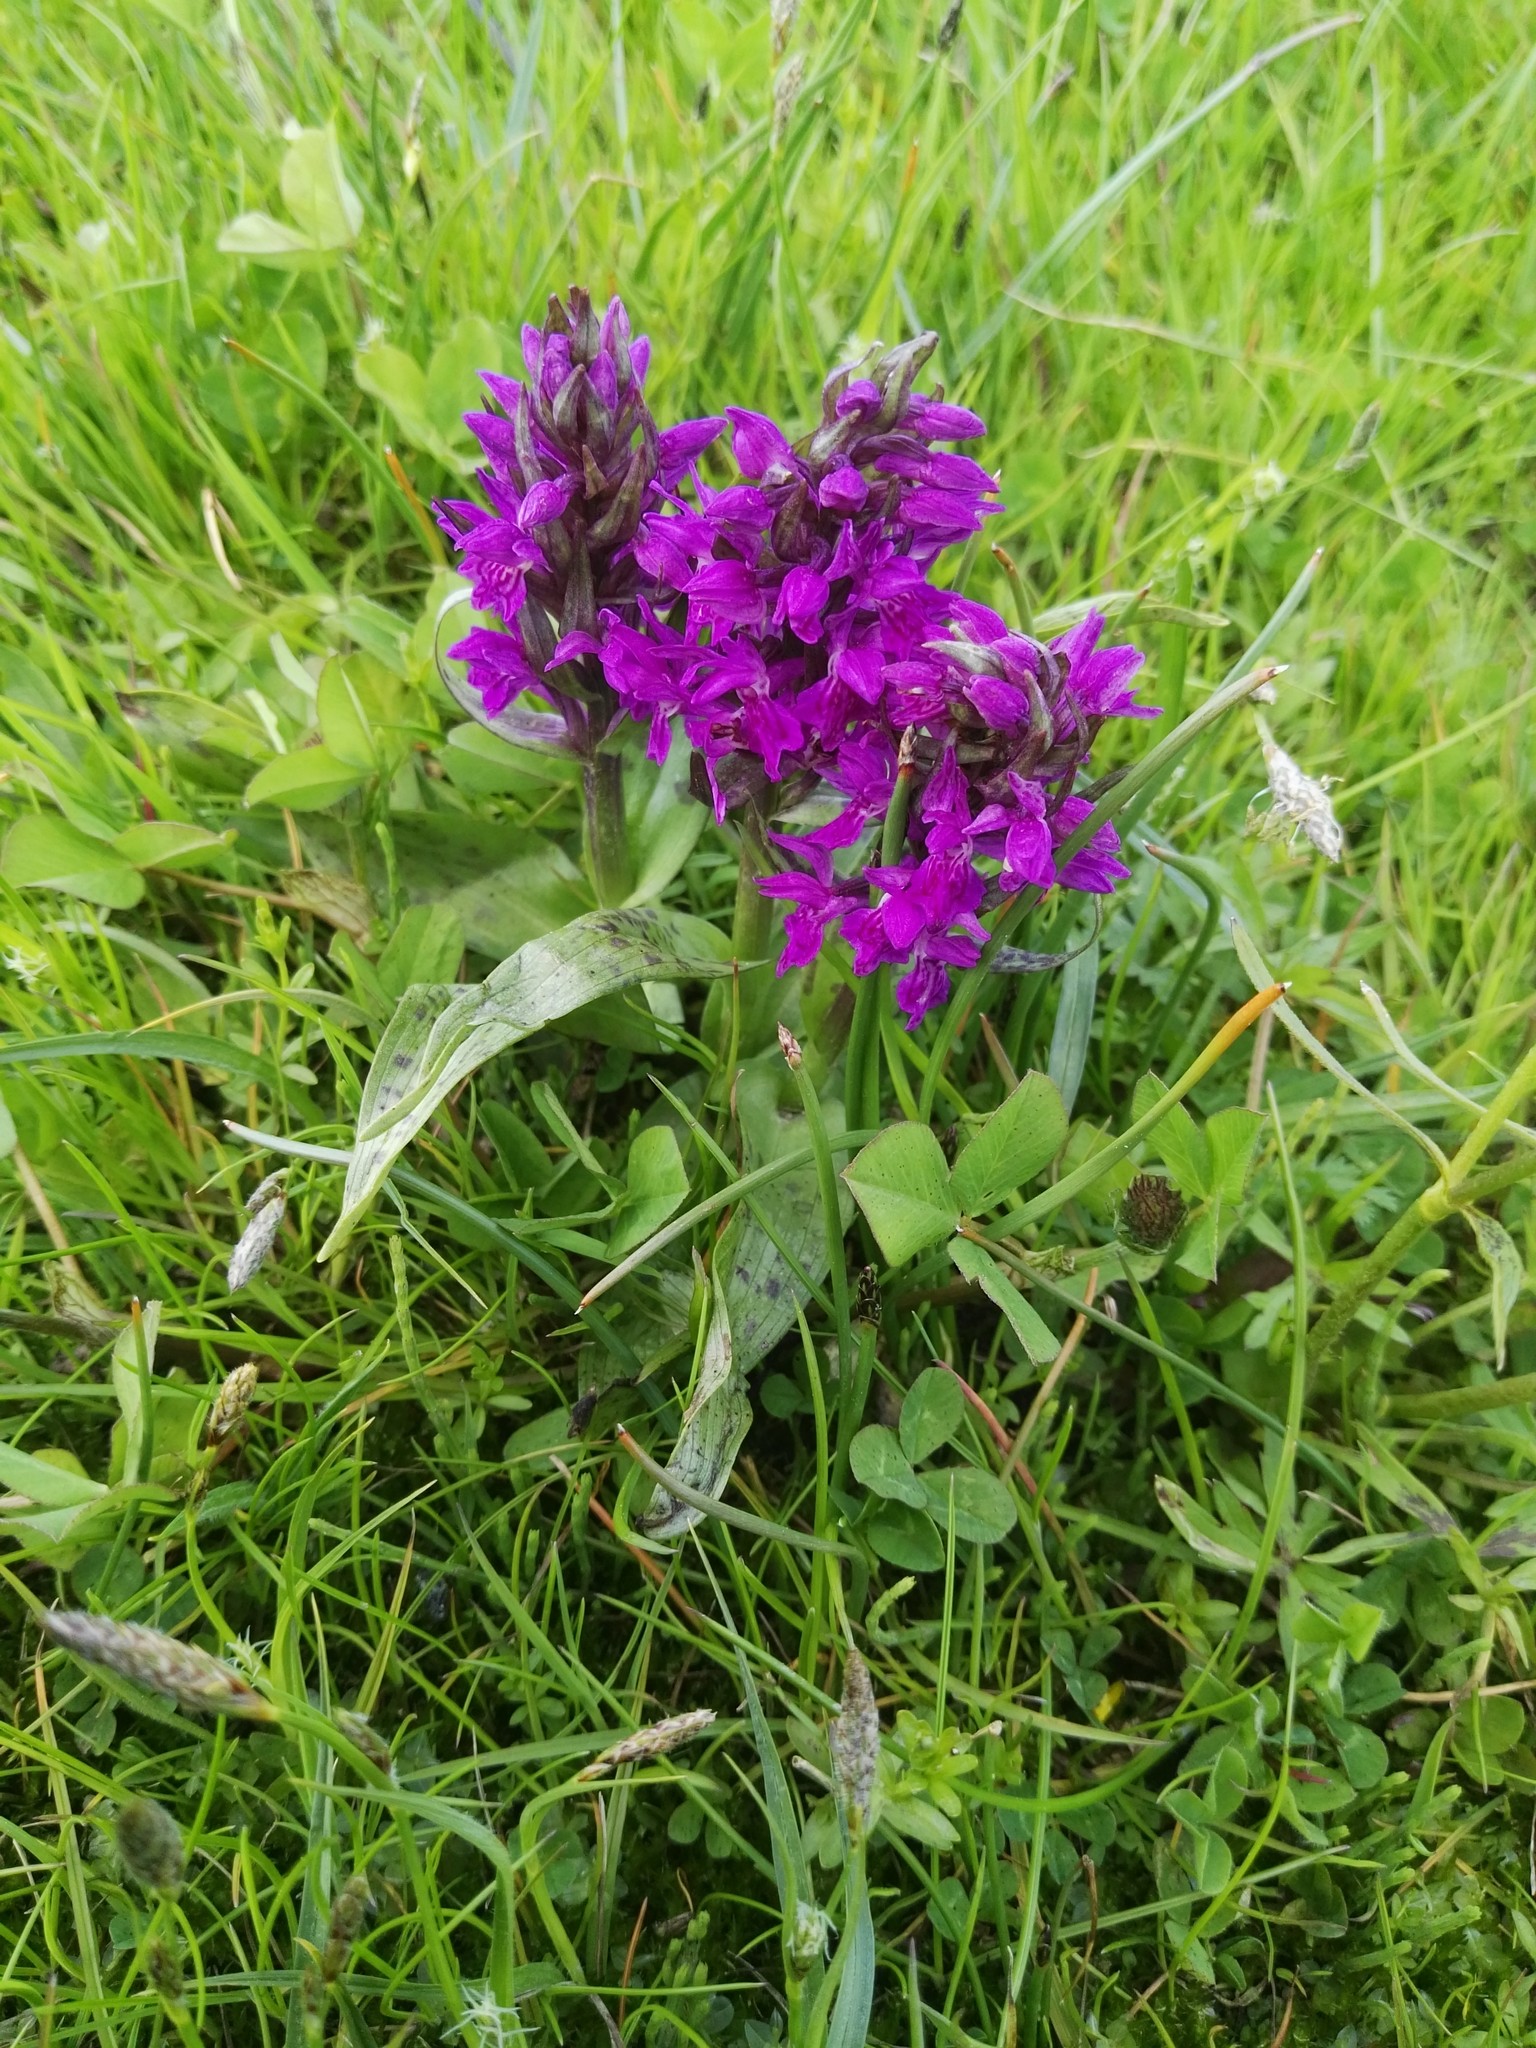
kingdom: Plantae
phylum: Tracheophyta
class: Liliopsida
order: Asparagales
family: Orchidaceae
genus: Dactylorhiza
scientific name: Dactylorhiza majalis
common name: Marsh orchid
